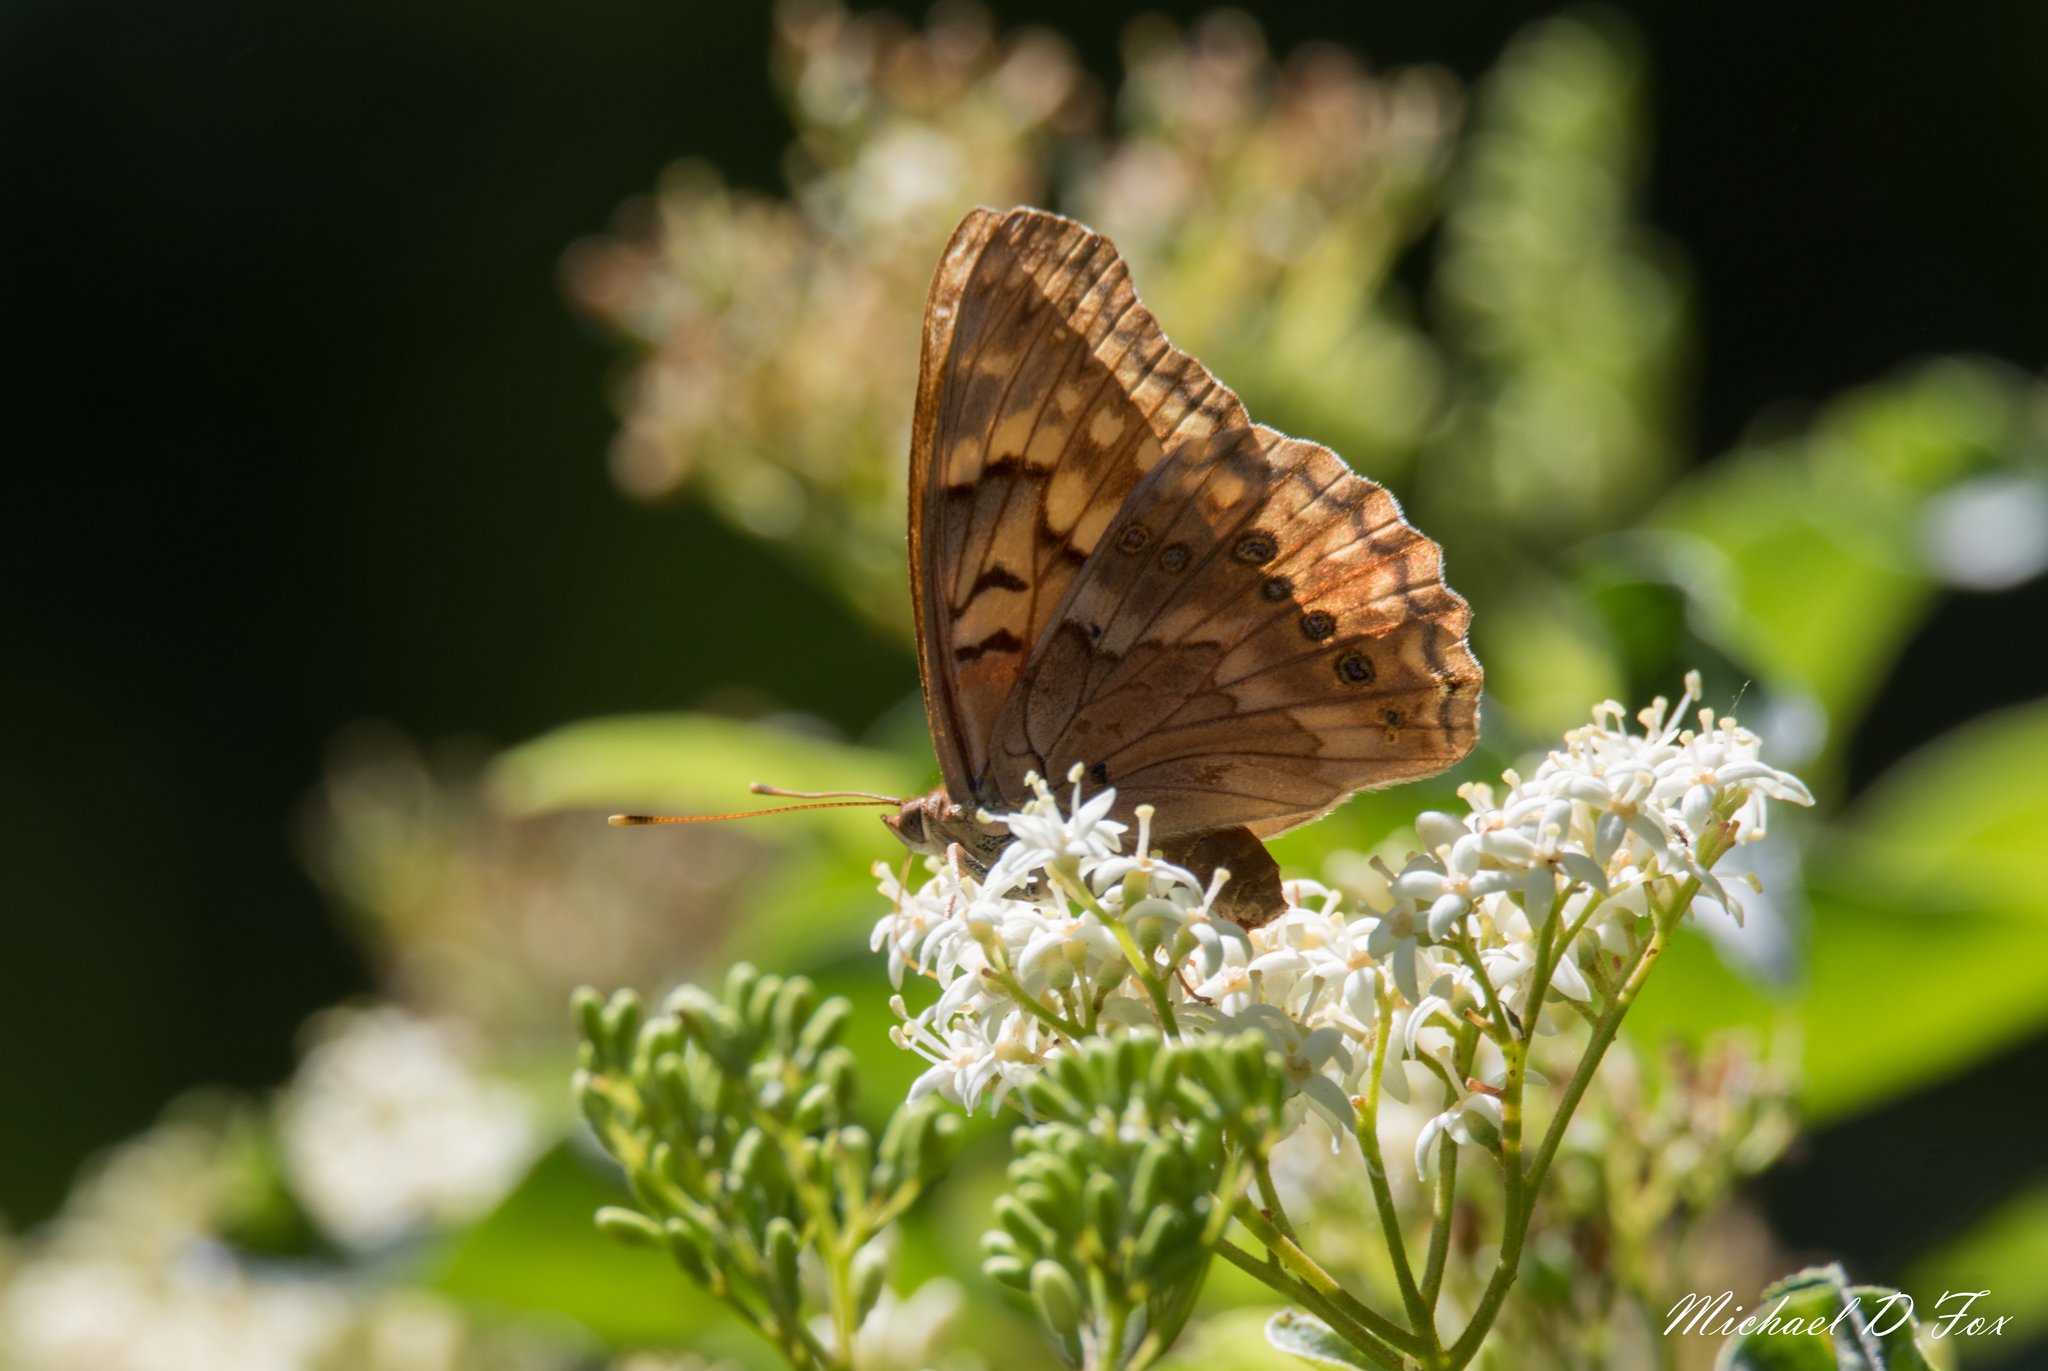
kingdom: Animalia
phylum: Arthropoda
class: Insecta
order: Lepidoptera
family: Nymphalidae
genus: Asterocampa
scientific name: Asterocampa clyton
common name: Tawny emperor
